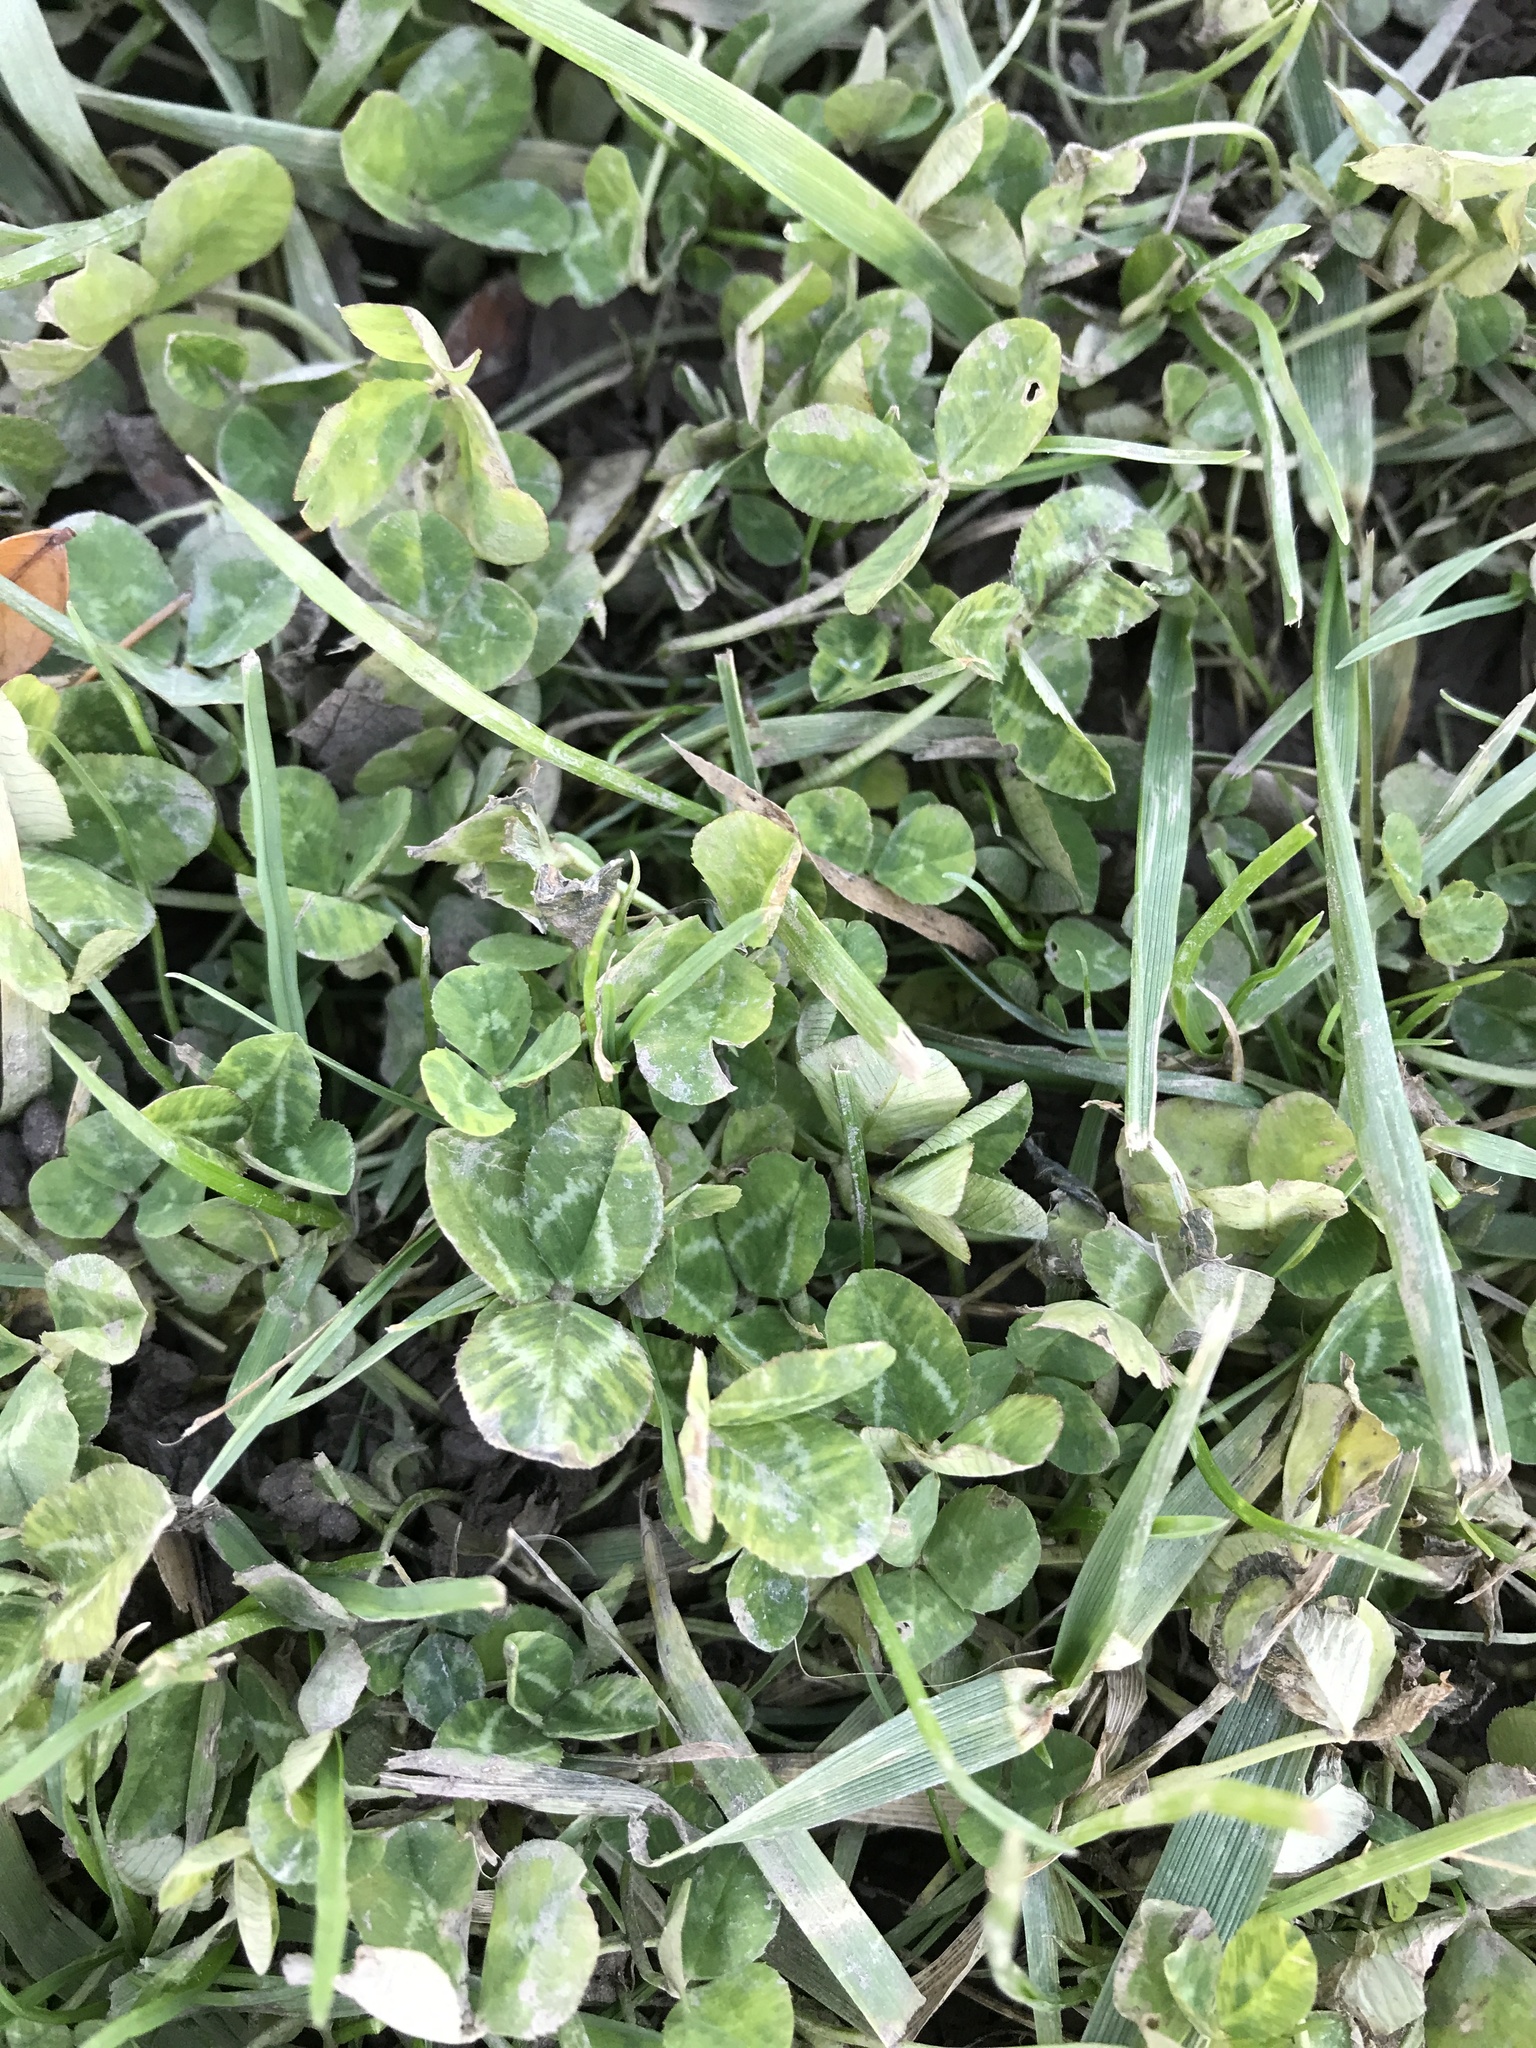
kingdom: Plantae
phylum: Tracheophyta
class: Magnoliopsida
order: Fabales
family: Fabaceae
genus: Trifolium
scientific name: Trifolium repens
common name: White clover
